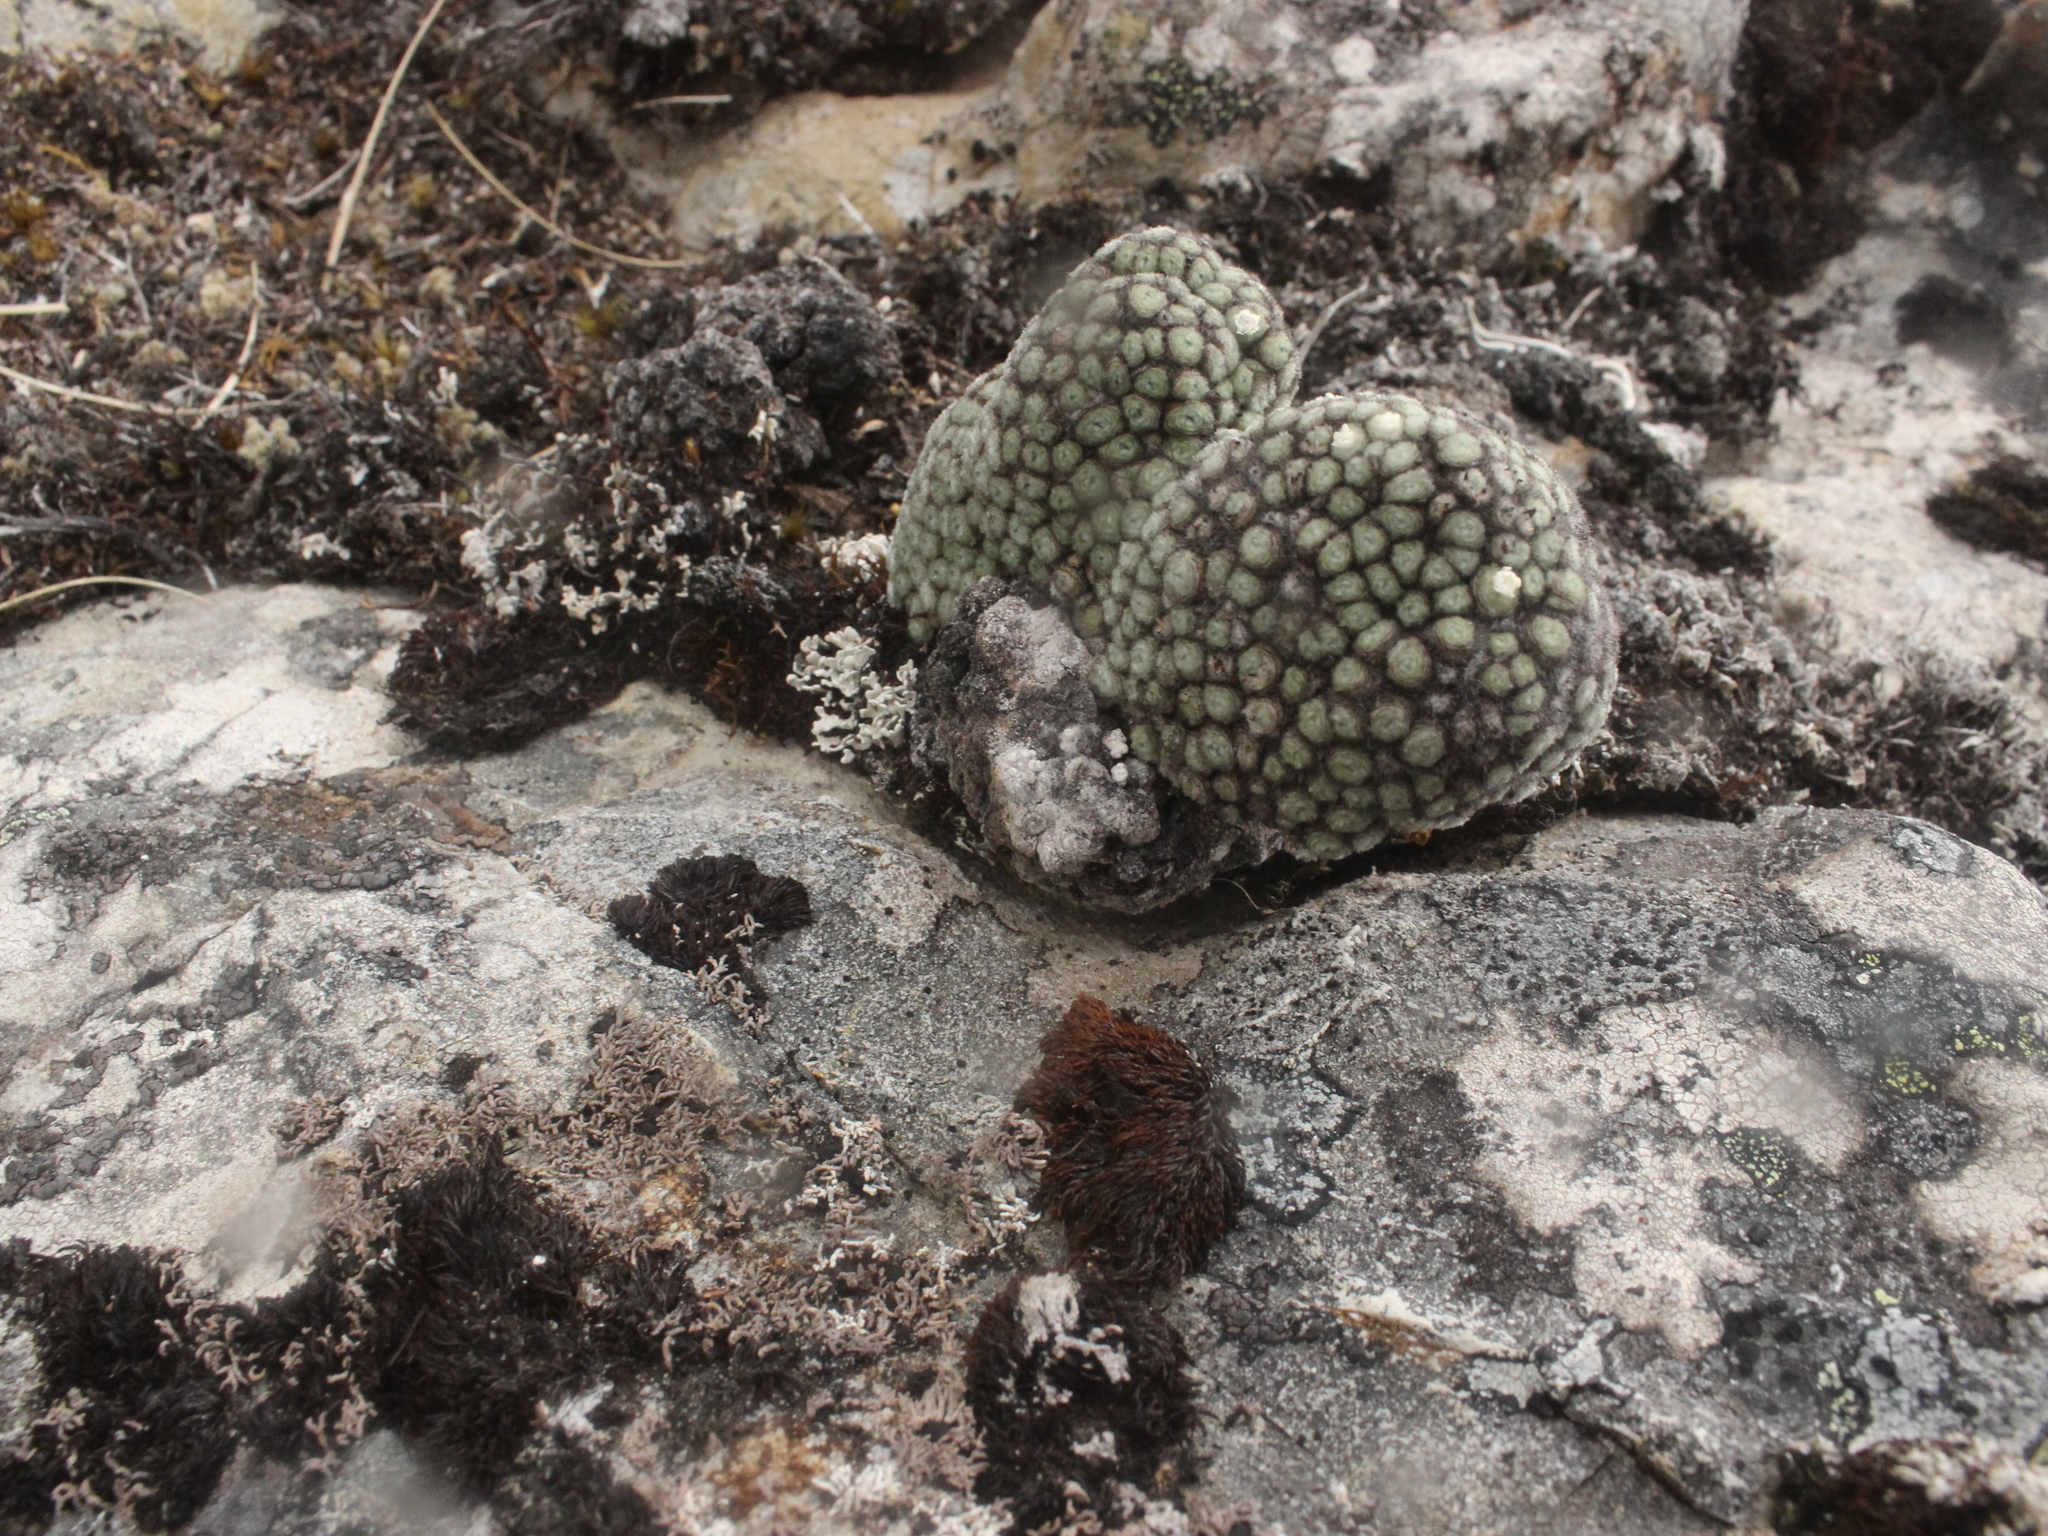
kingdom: Plantae
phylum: Tracheophyta
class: Magnoliopsida
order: Asterales
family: Asteraceae
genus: Raoulia
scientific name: Raoulia rubra
